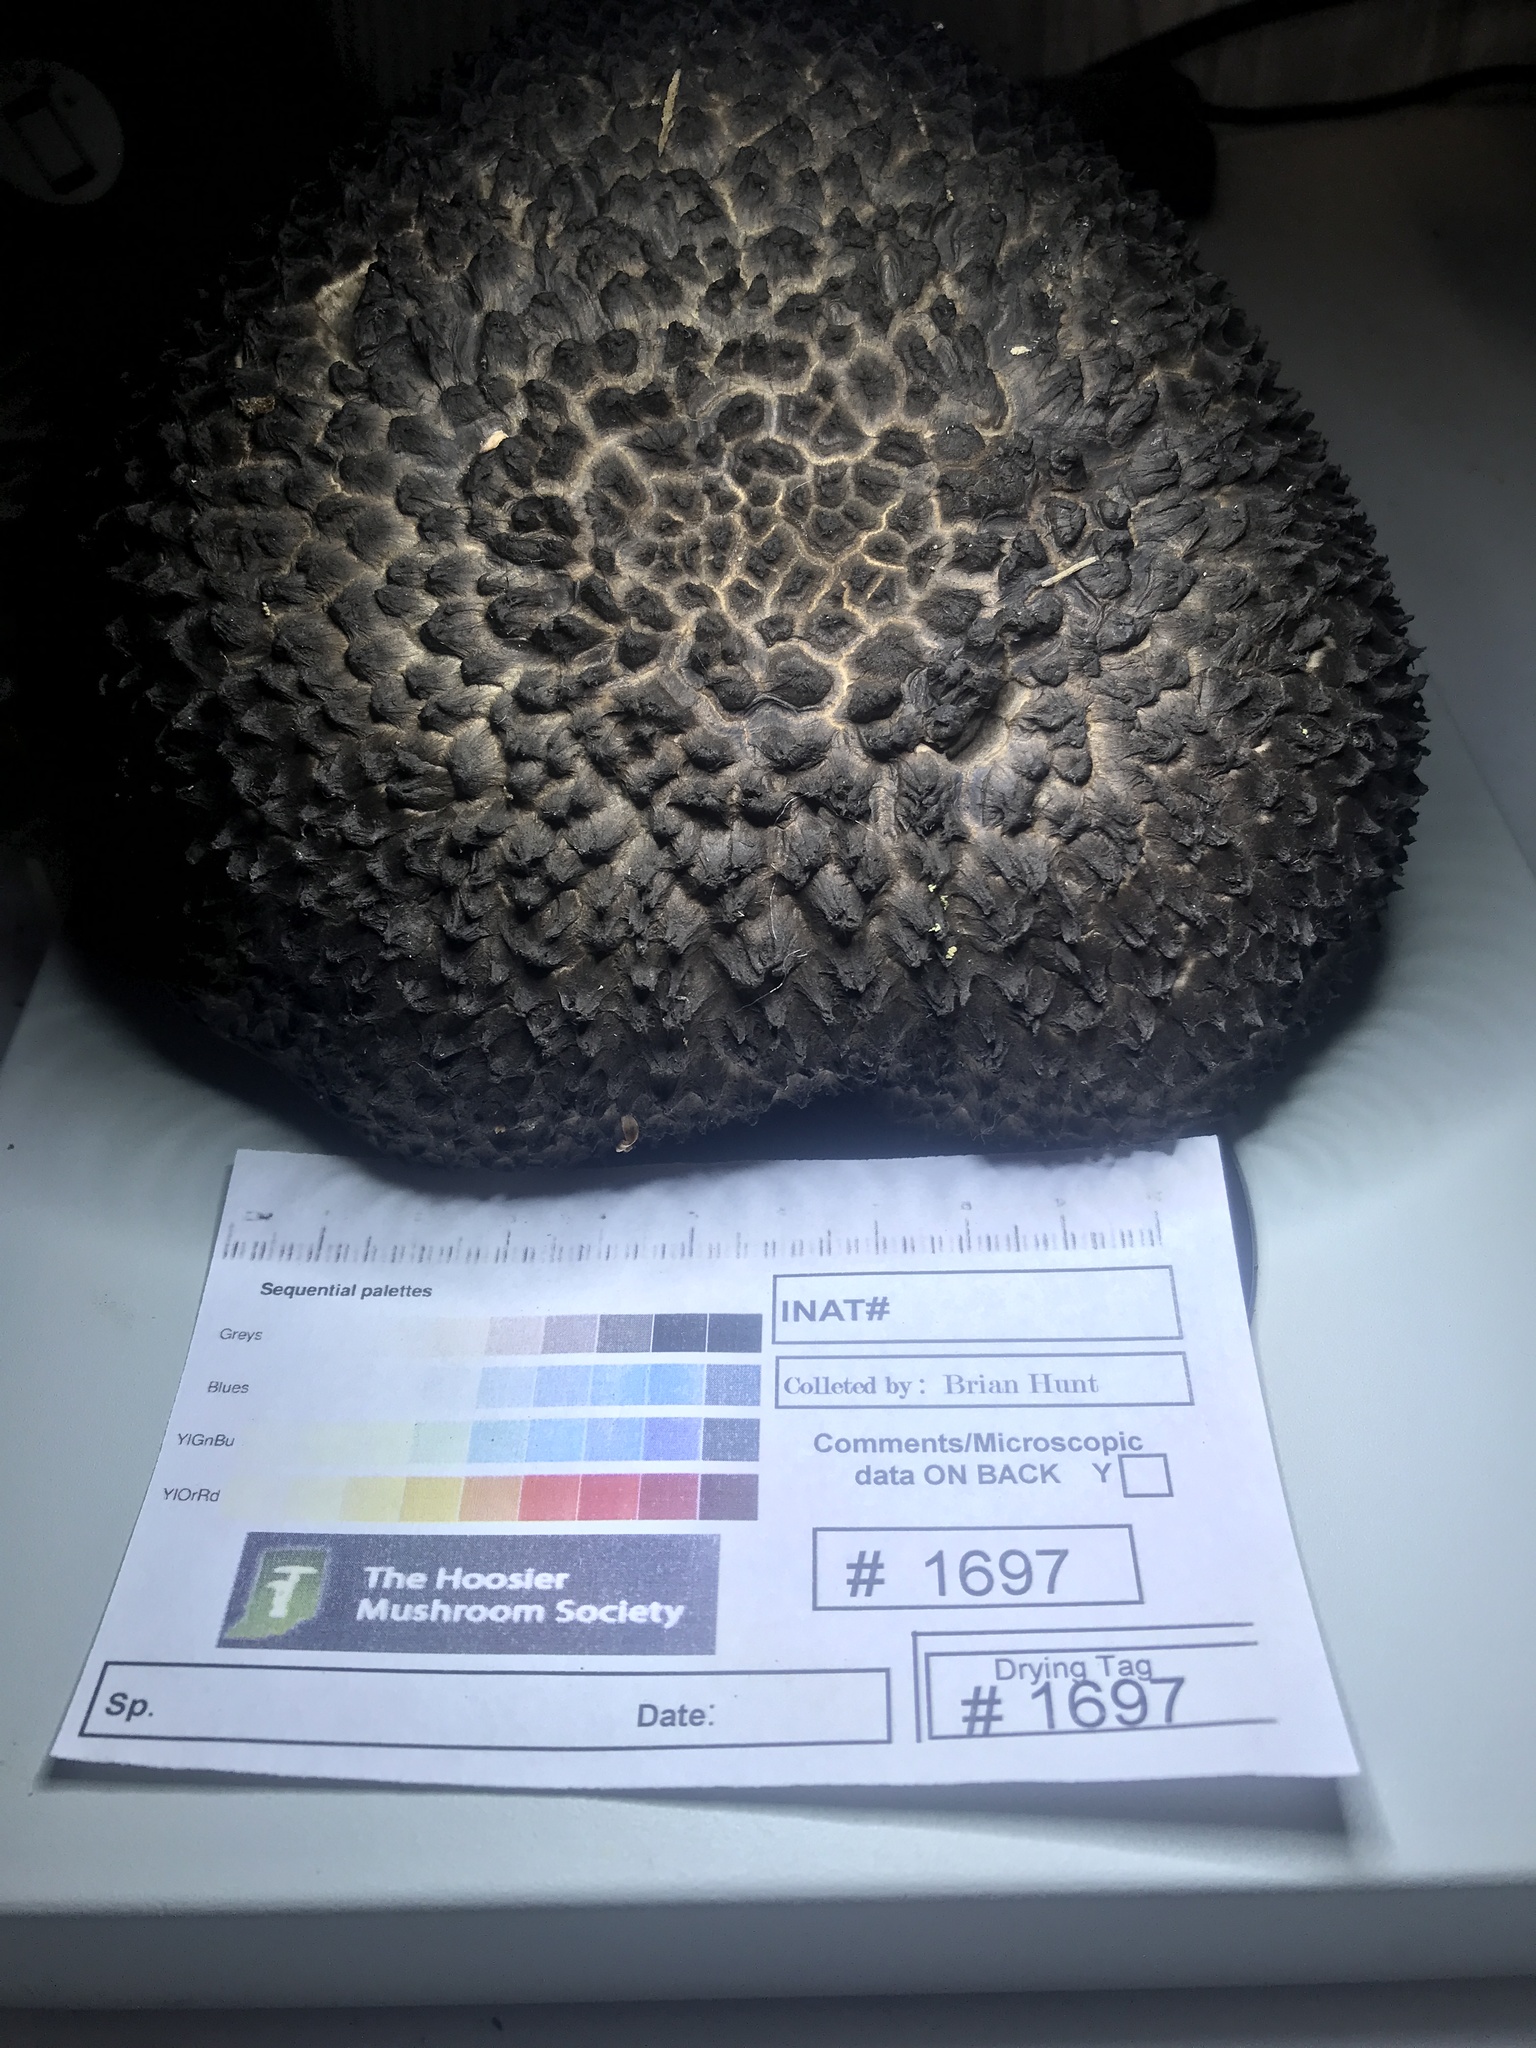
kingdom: Fungi
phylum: Basidiomycota
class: Agaricomycetes
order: Boletales
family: Boletaceae
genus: Strobilomyces
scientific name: Strobilomyces strobilaceus
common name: Old man of the woods
